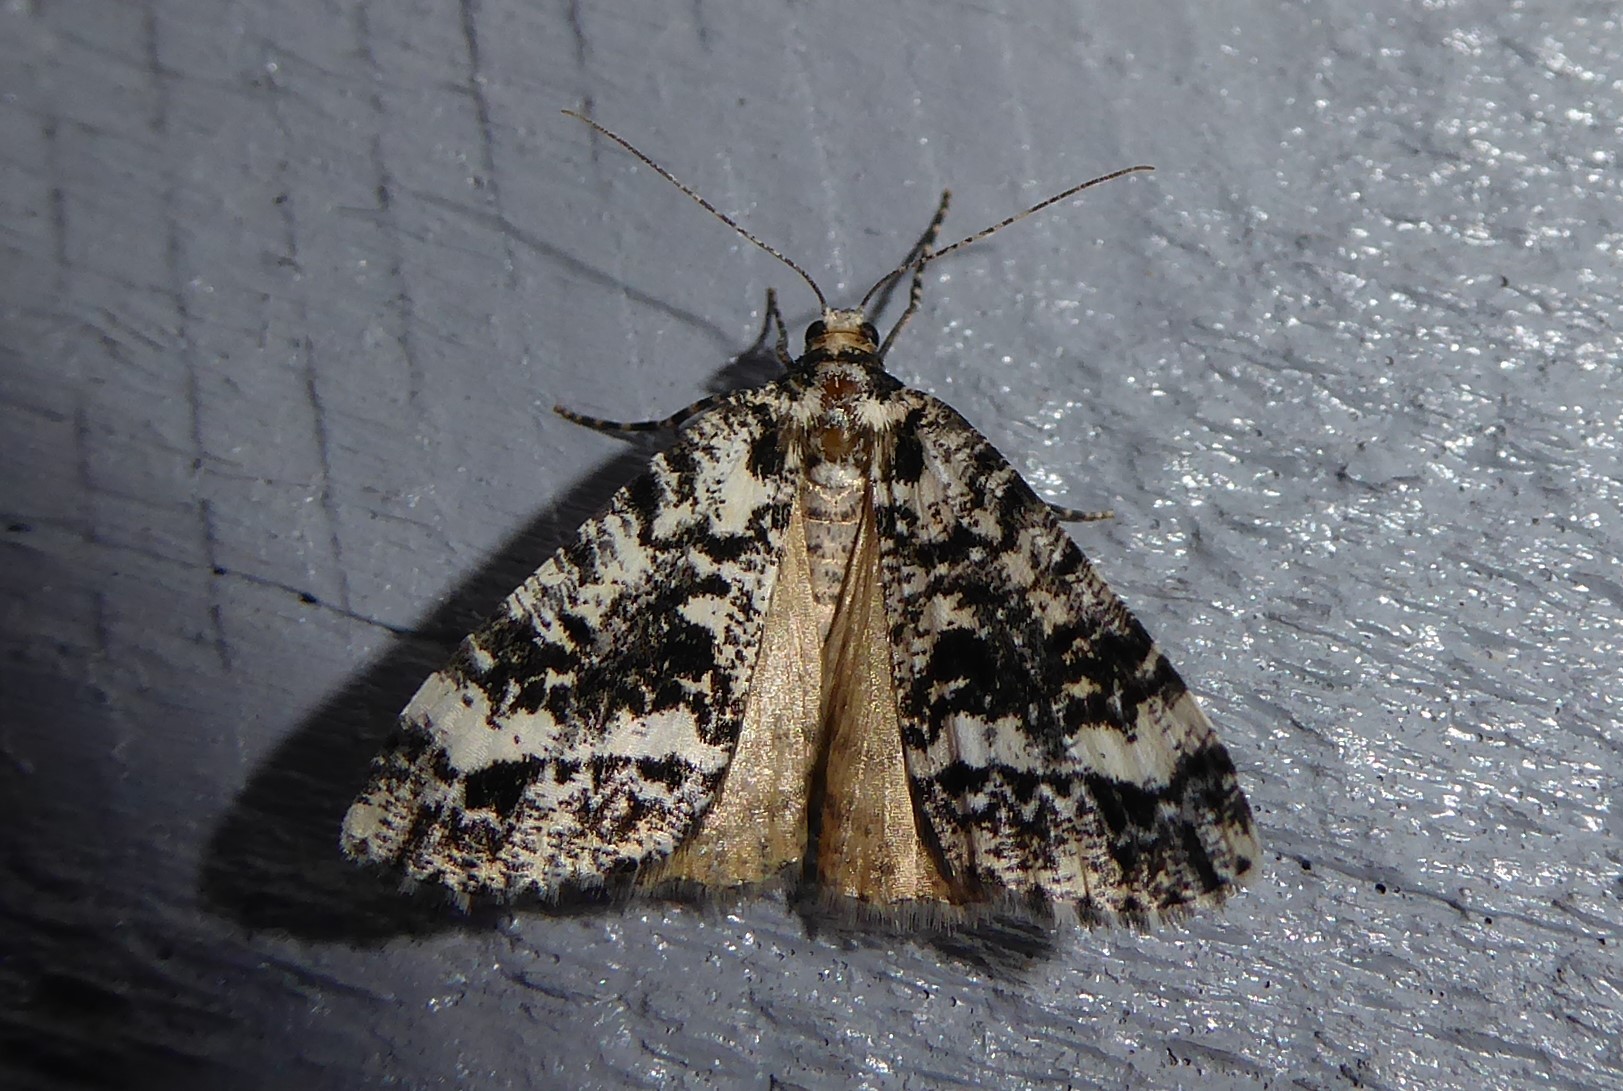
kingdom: Animalia
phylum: Arthropoda
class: Insecta
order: Lepidoptera
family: Geometridae
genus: Pseudocoremia
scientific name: Pseudocoremia leucelaea
